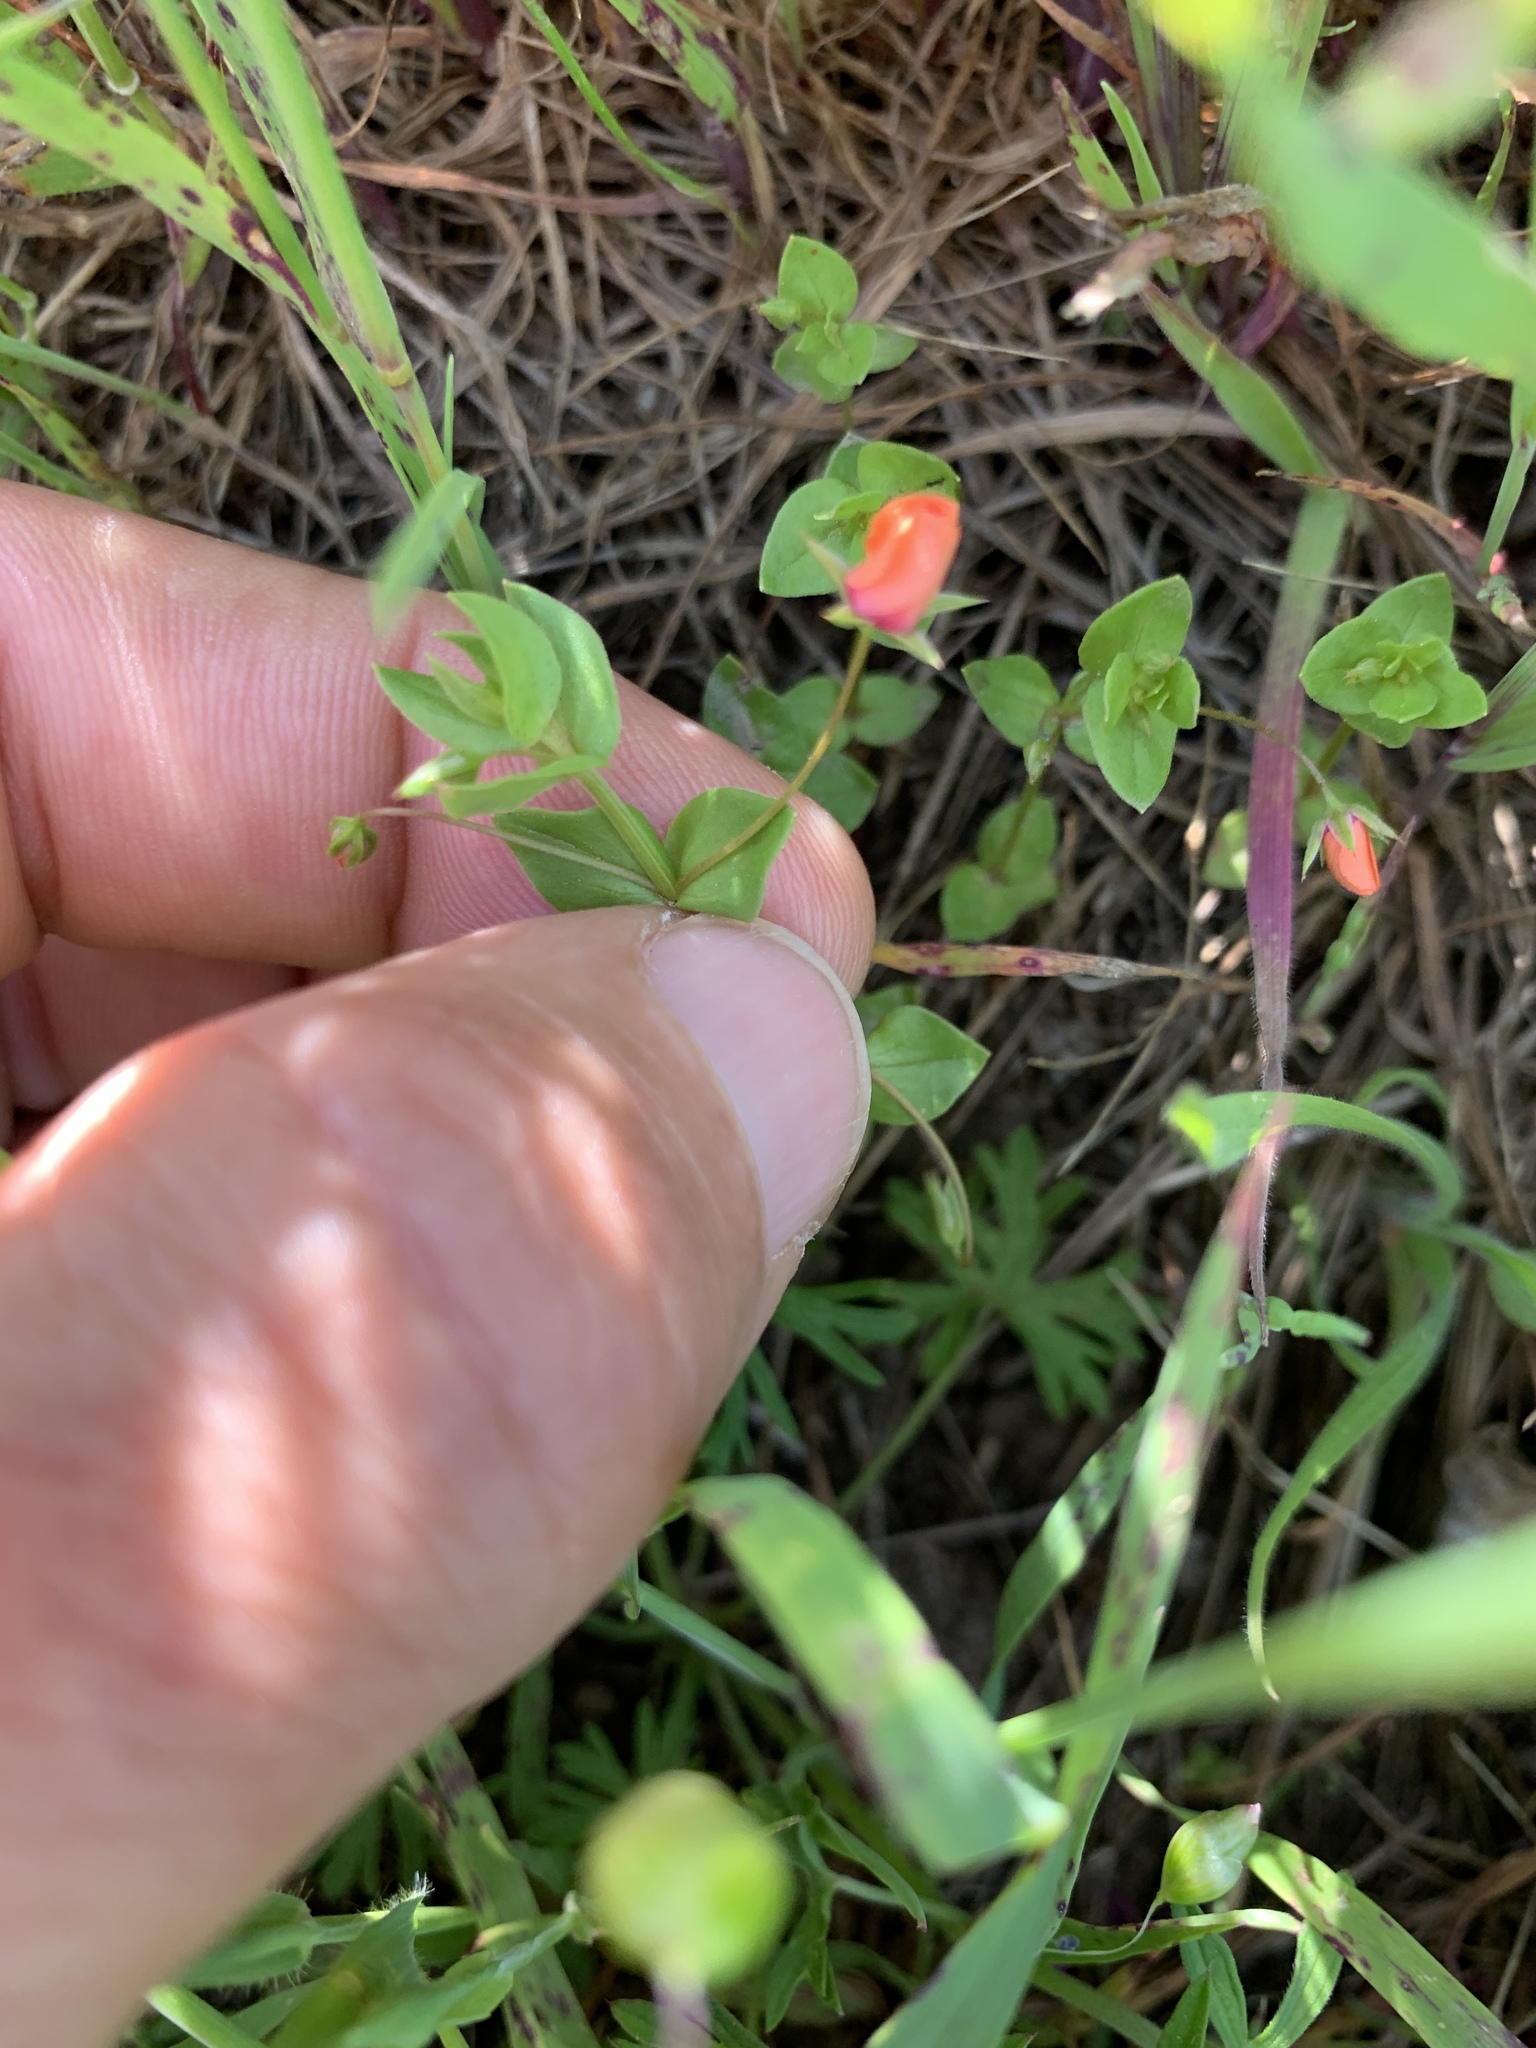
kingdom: Plantae
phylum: Tracheophyta
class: Magnoliopsida
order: Ericales
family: Primulaceae
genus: Lysimachia
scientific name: Lysimachia arvensis
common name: Scarlet pimpernel
